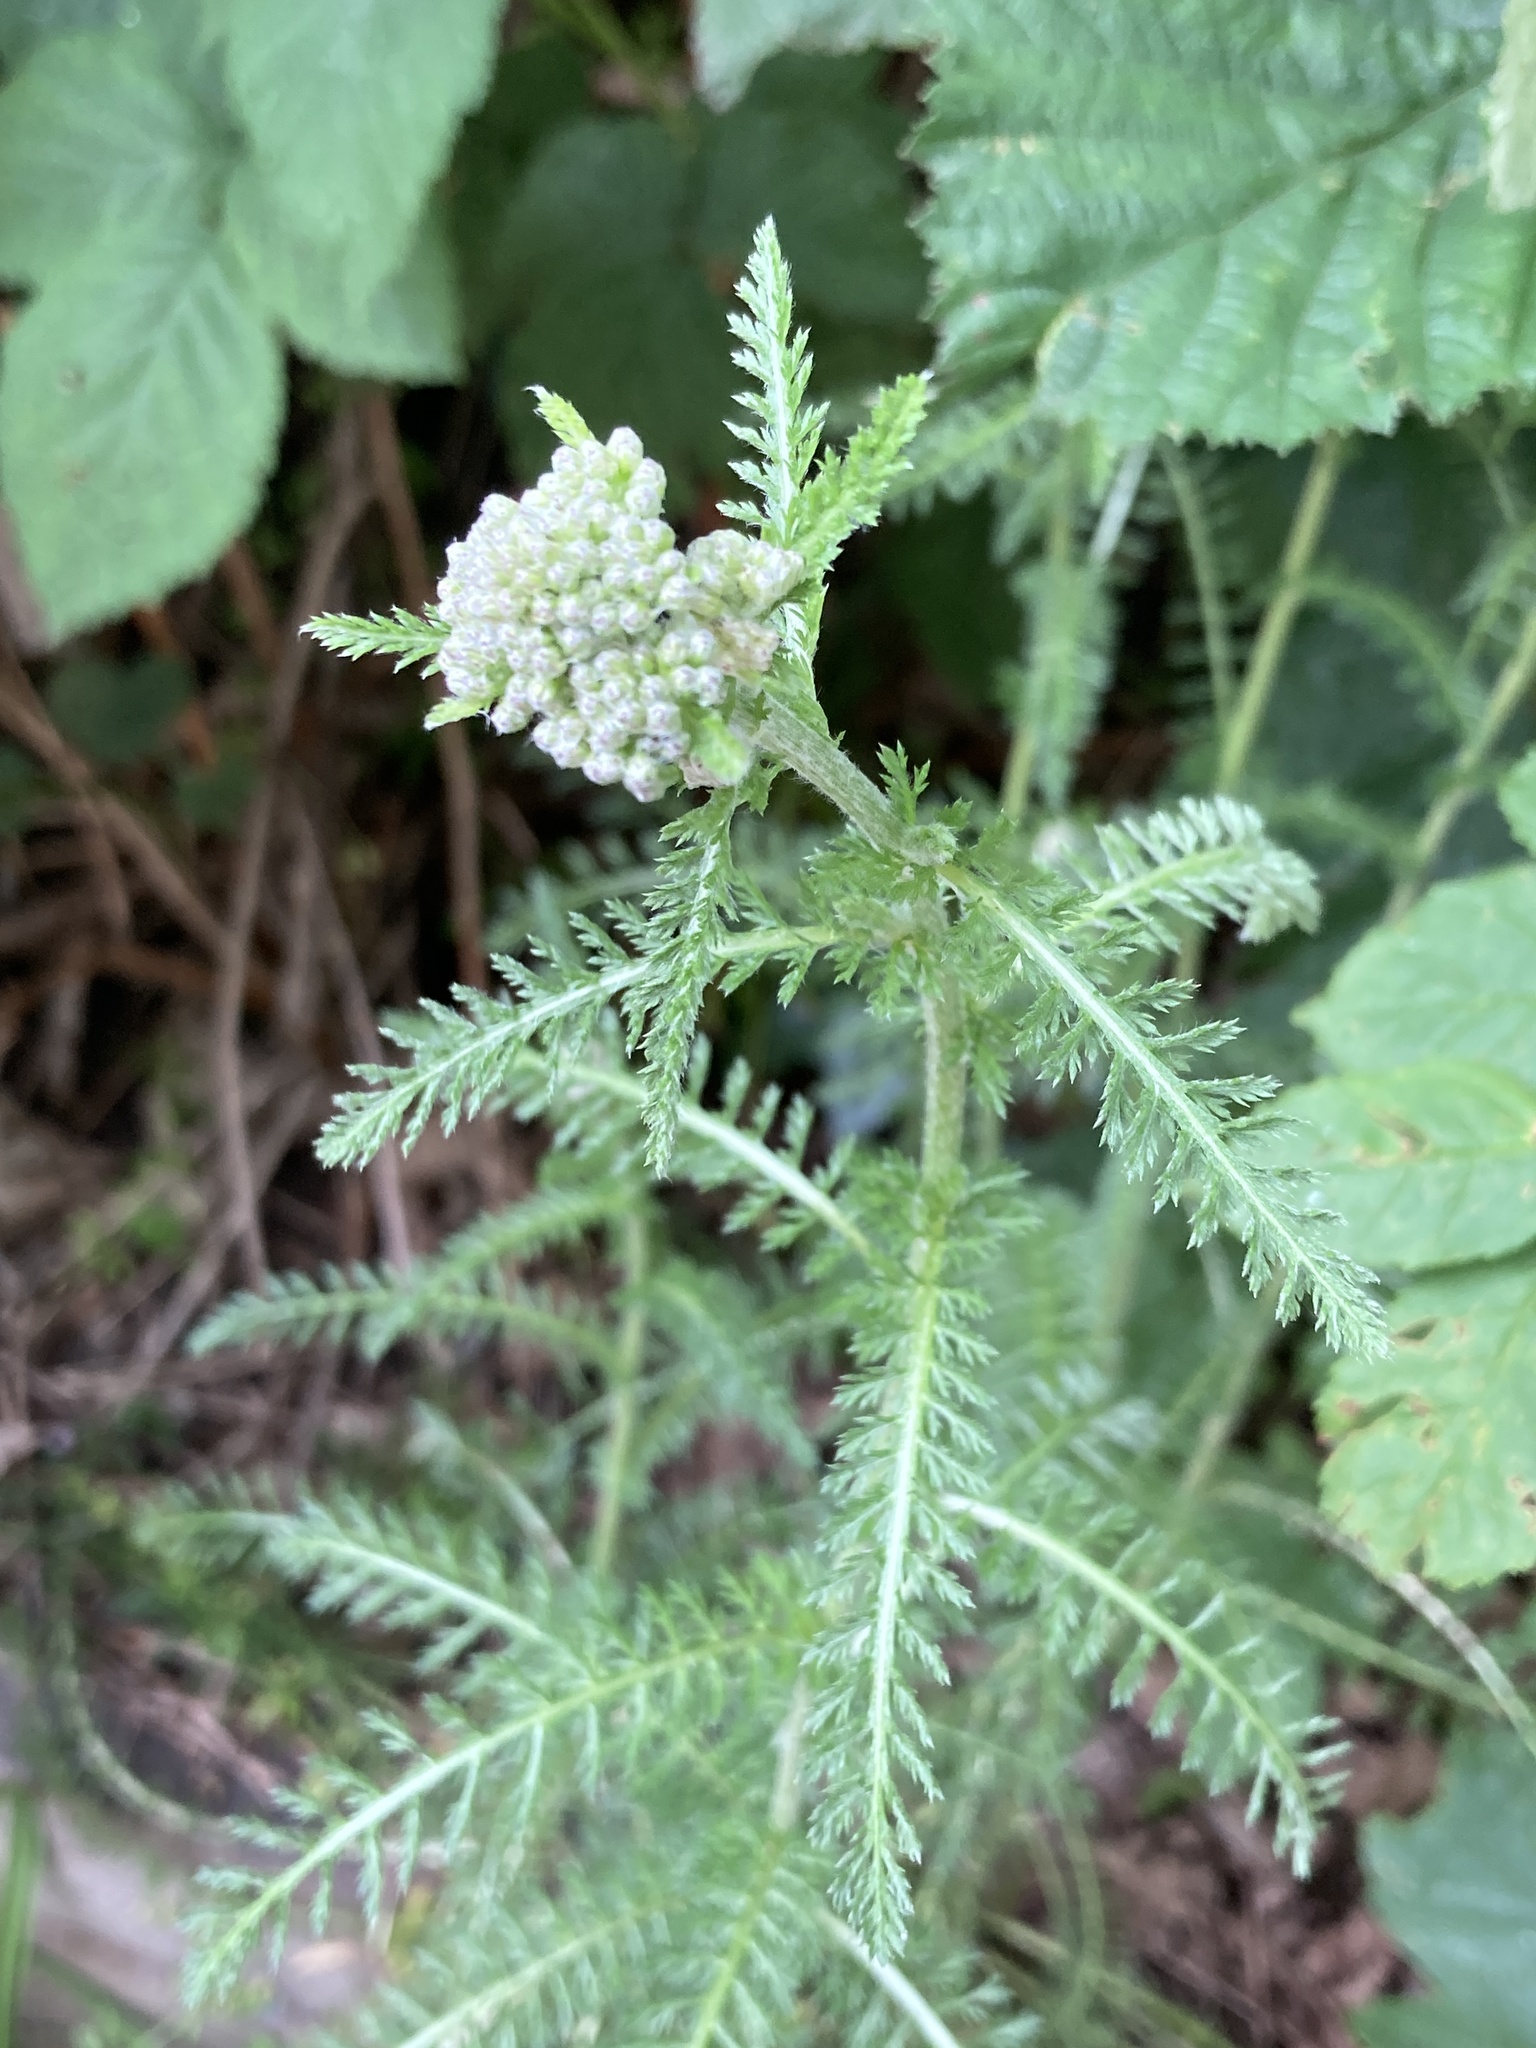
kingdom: Plantae
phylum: Tracheophyta
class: Magnoliopsida
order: Asterales
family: Asteraceae
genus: Achillea
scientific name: Achillea millefolium
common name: Yarrow
